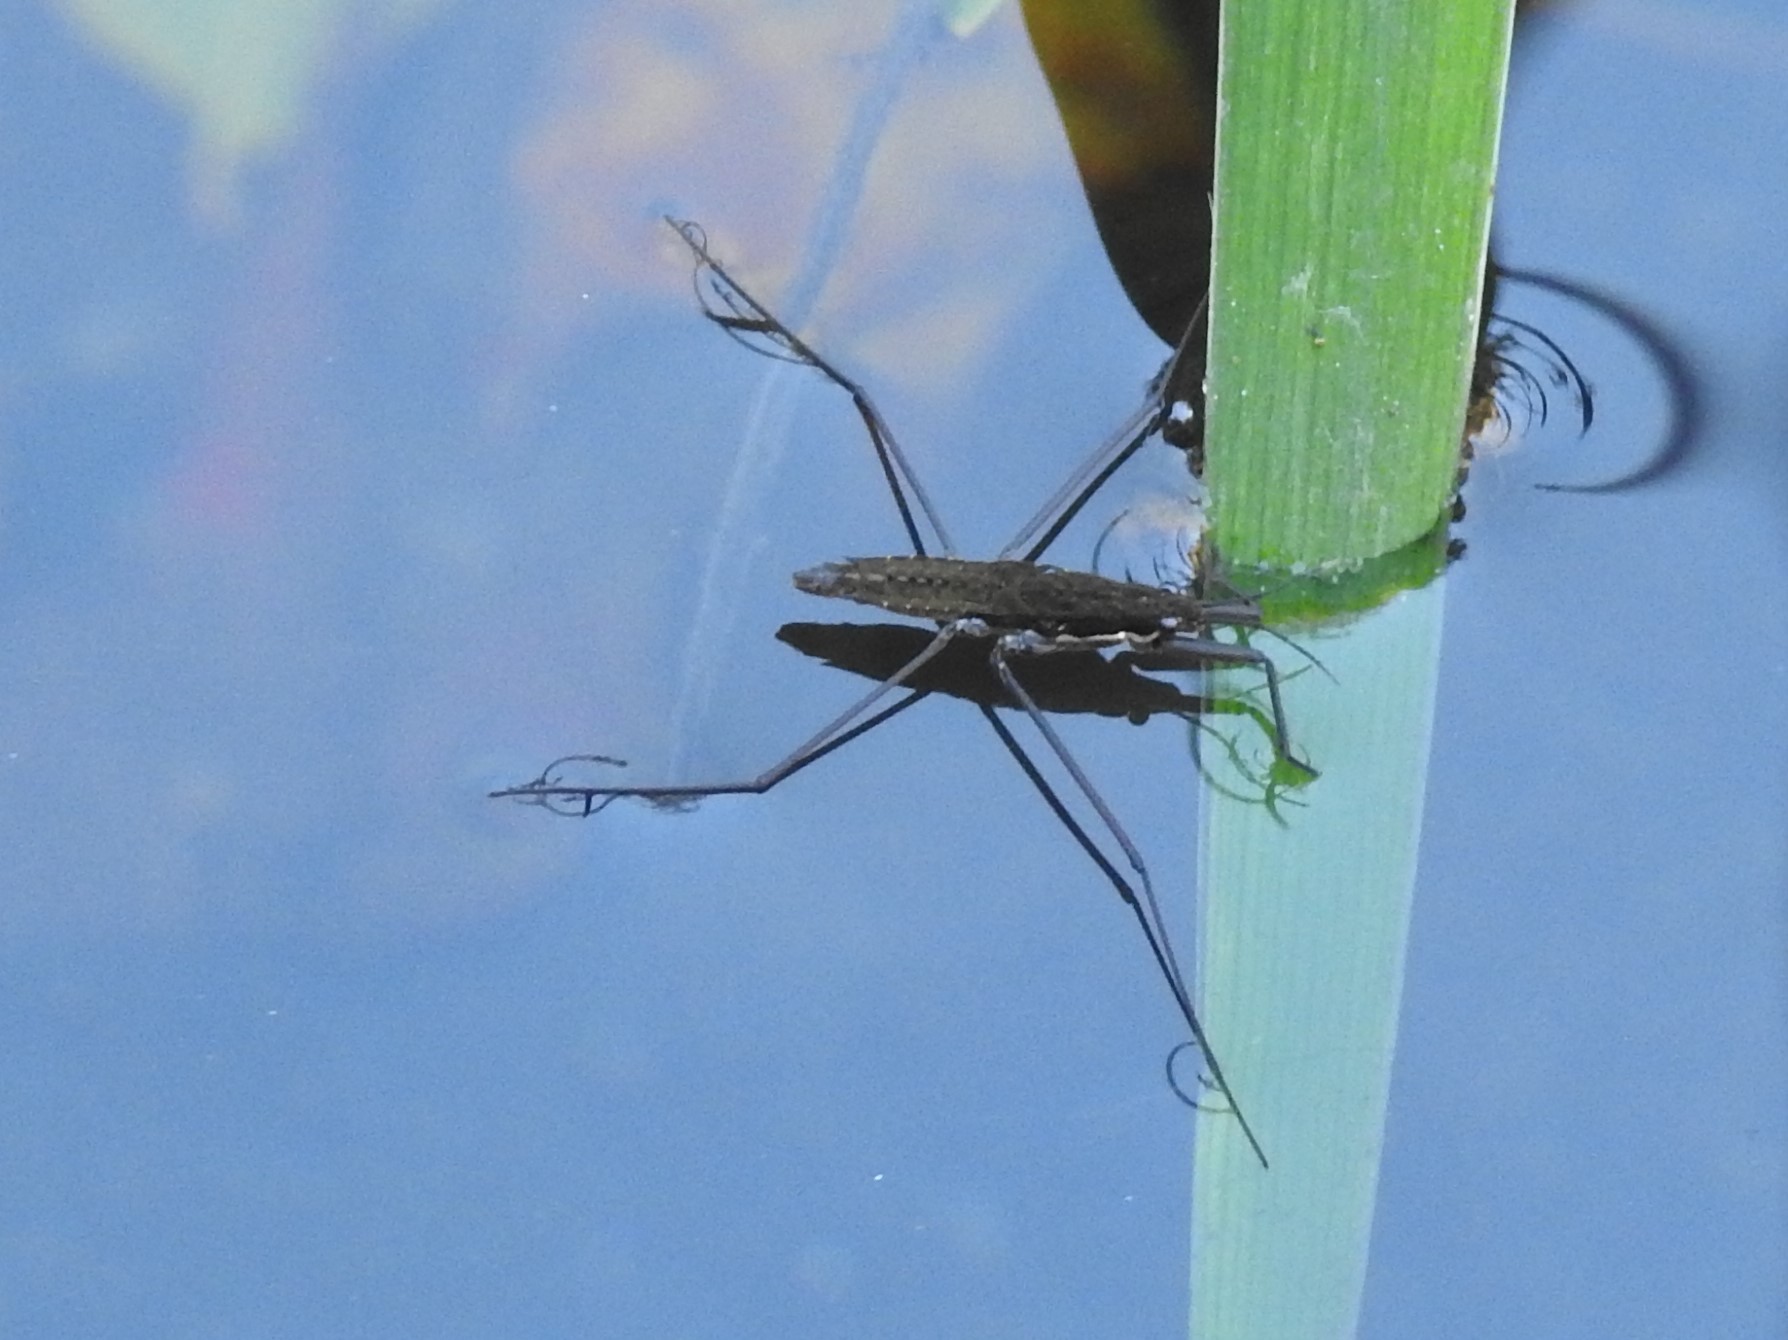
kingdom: Animalia
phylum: Arthropoda
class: Insecta
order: Hemiptera
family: Gerridae
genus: Aquarius
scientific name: Aquarius remigis
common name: Common water strider
